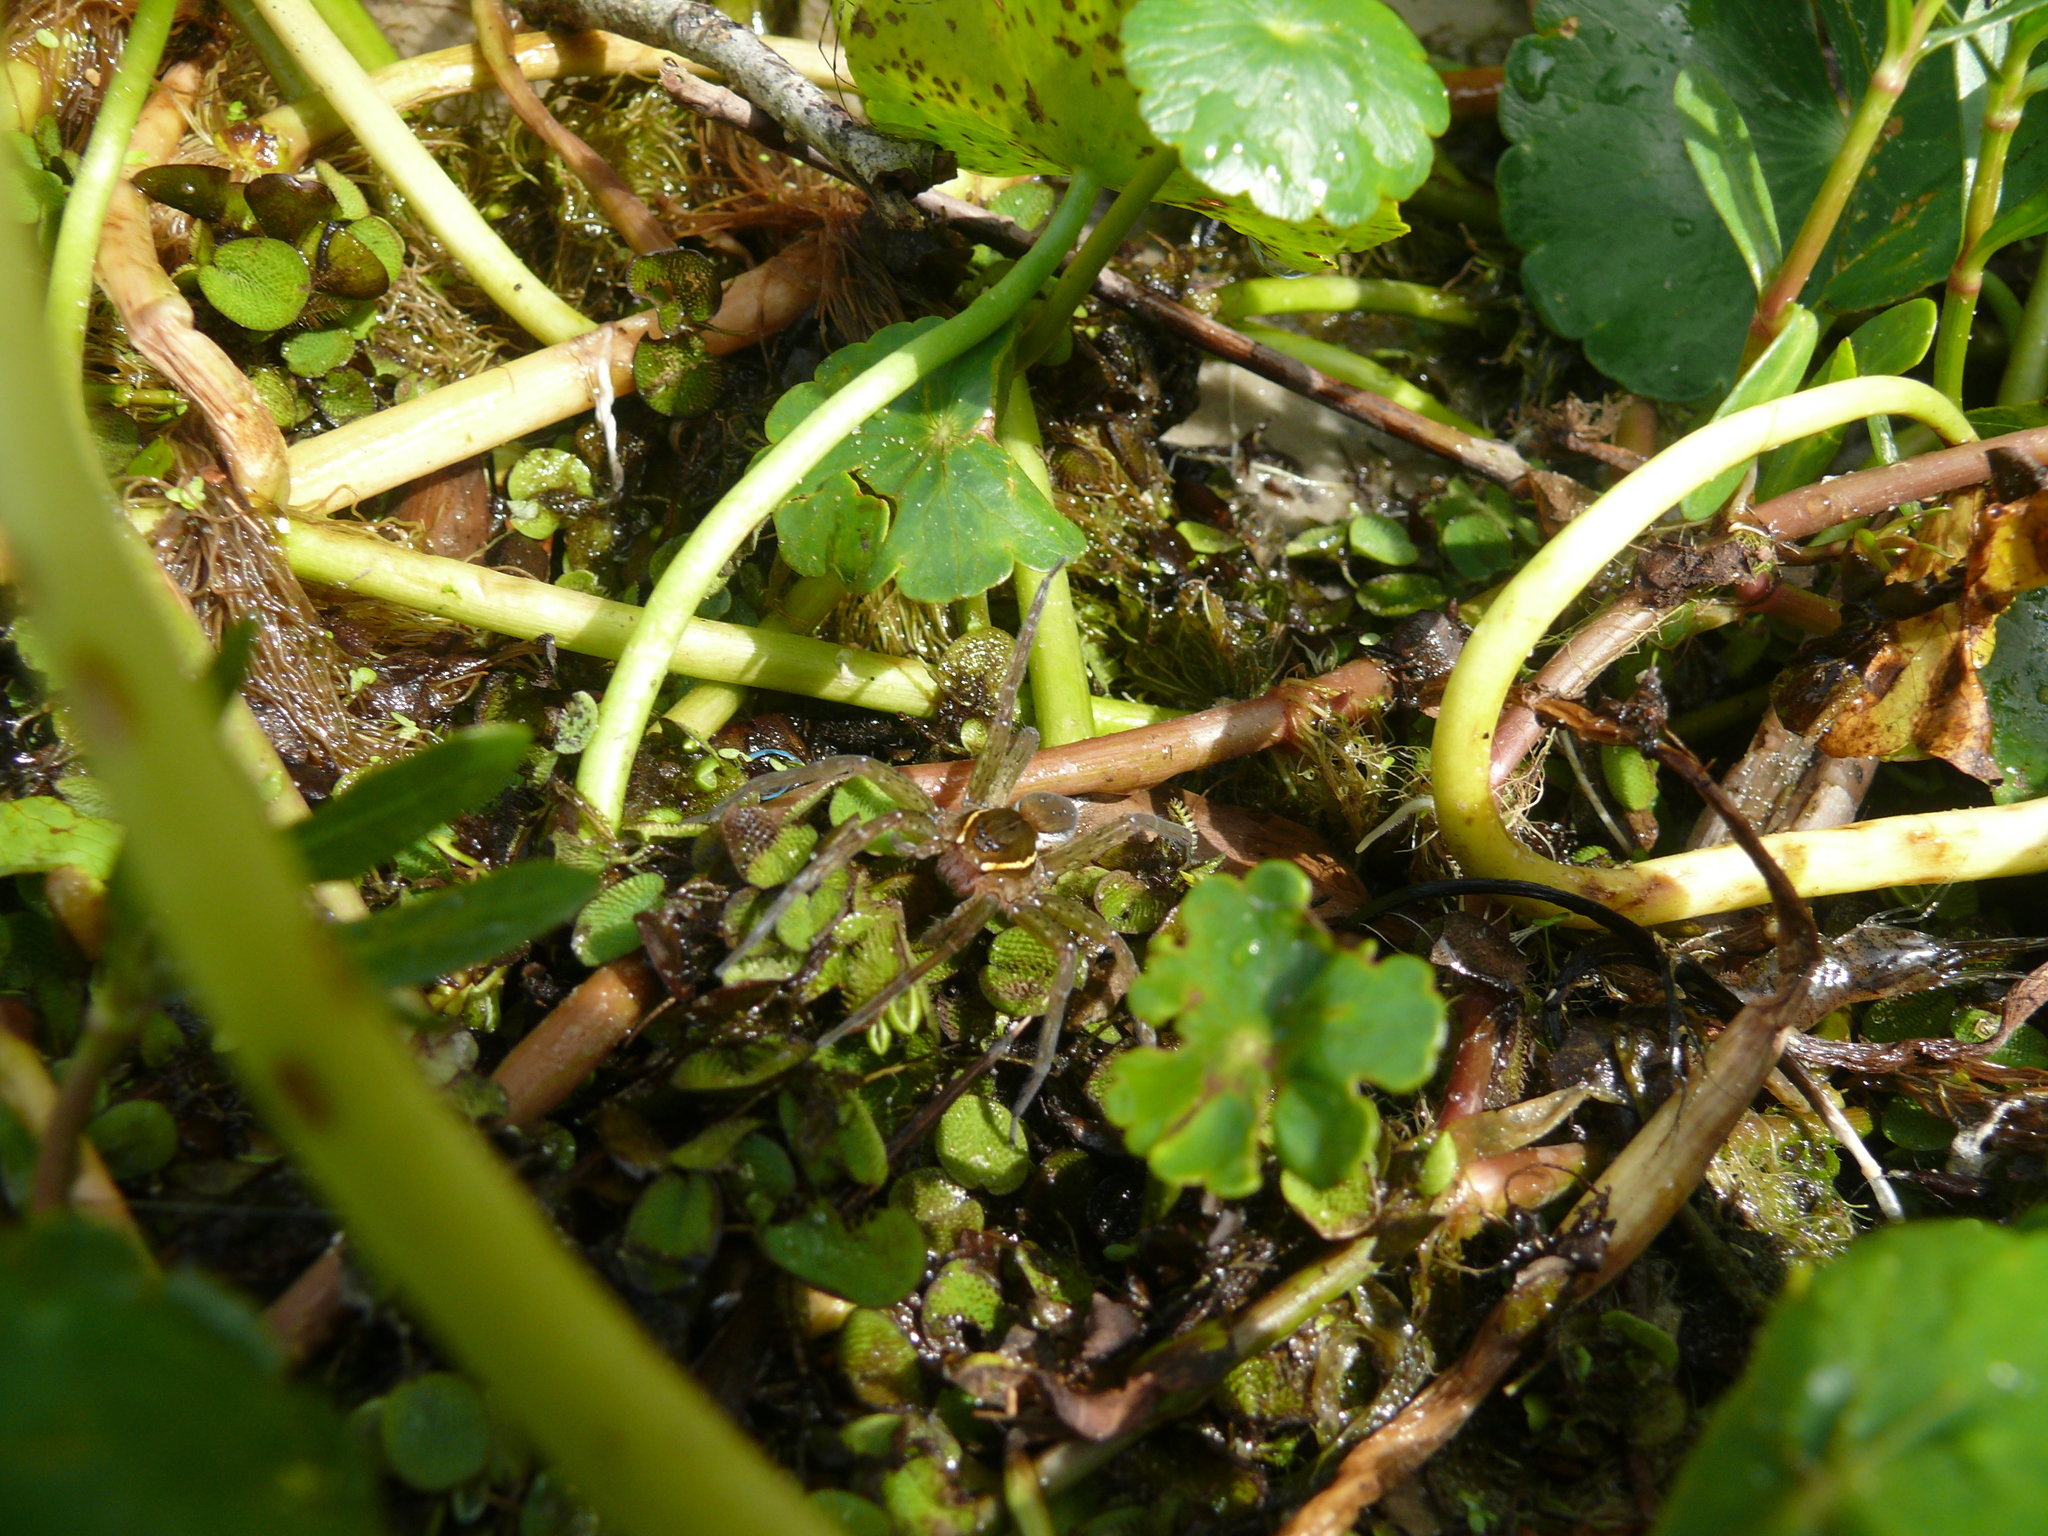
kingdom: Animalia
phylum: Arthropoda
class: Arachnida
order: Araneae
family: Pisauridae
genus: Dolomedes
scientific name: Dolomedes triton
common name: Six-spotted fishing spider
